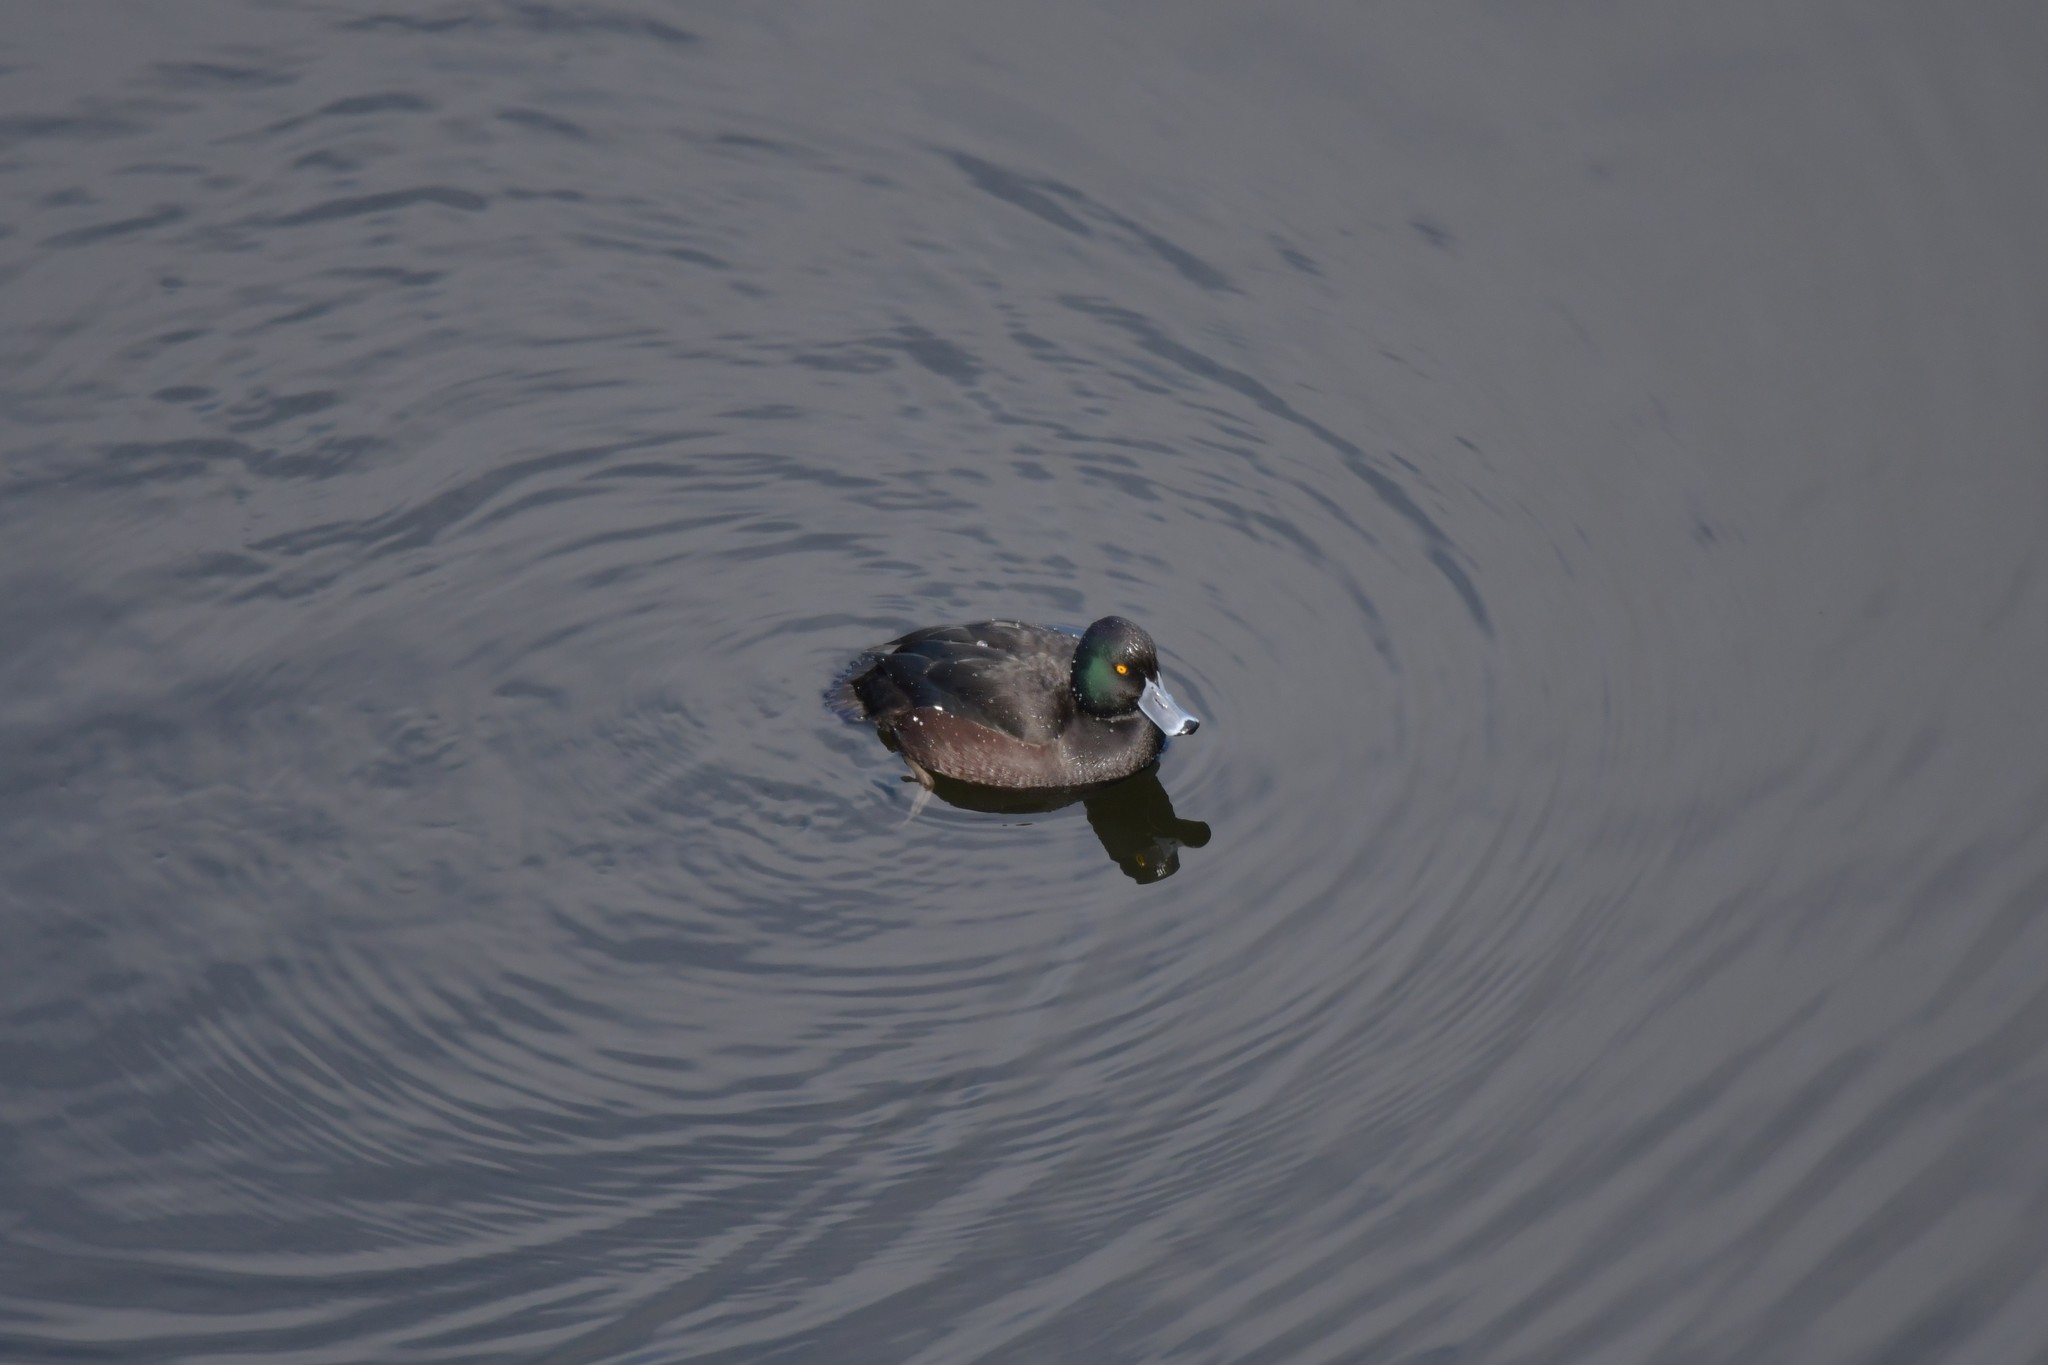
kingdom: Animalia
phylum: Chordata
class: Aves
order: Anseriformes
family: Anatidae
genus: Aythya
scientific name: Aythya novaeseelandiae
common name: New zealand scaup
